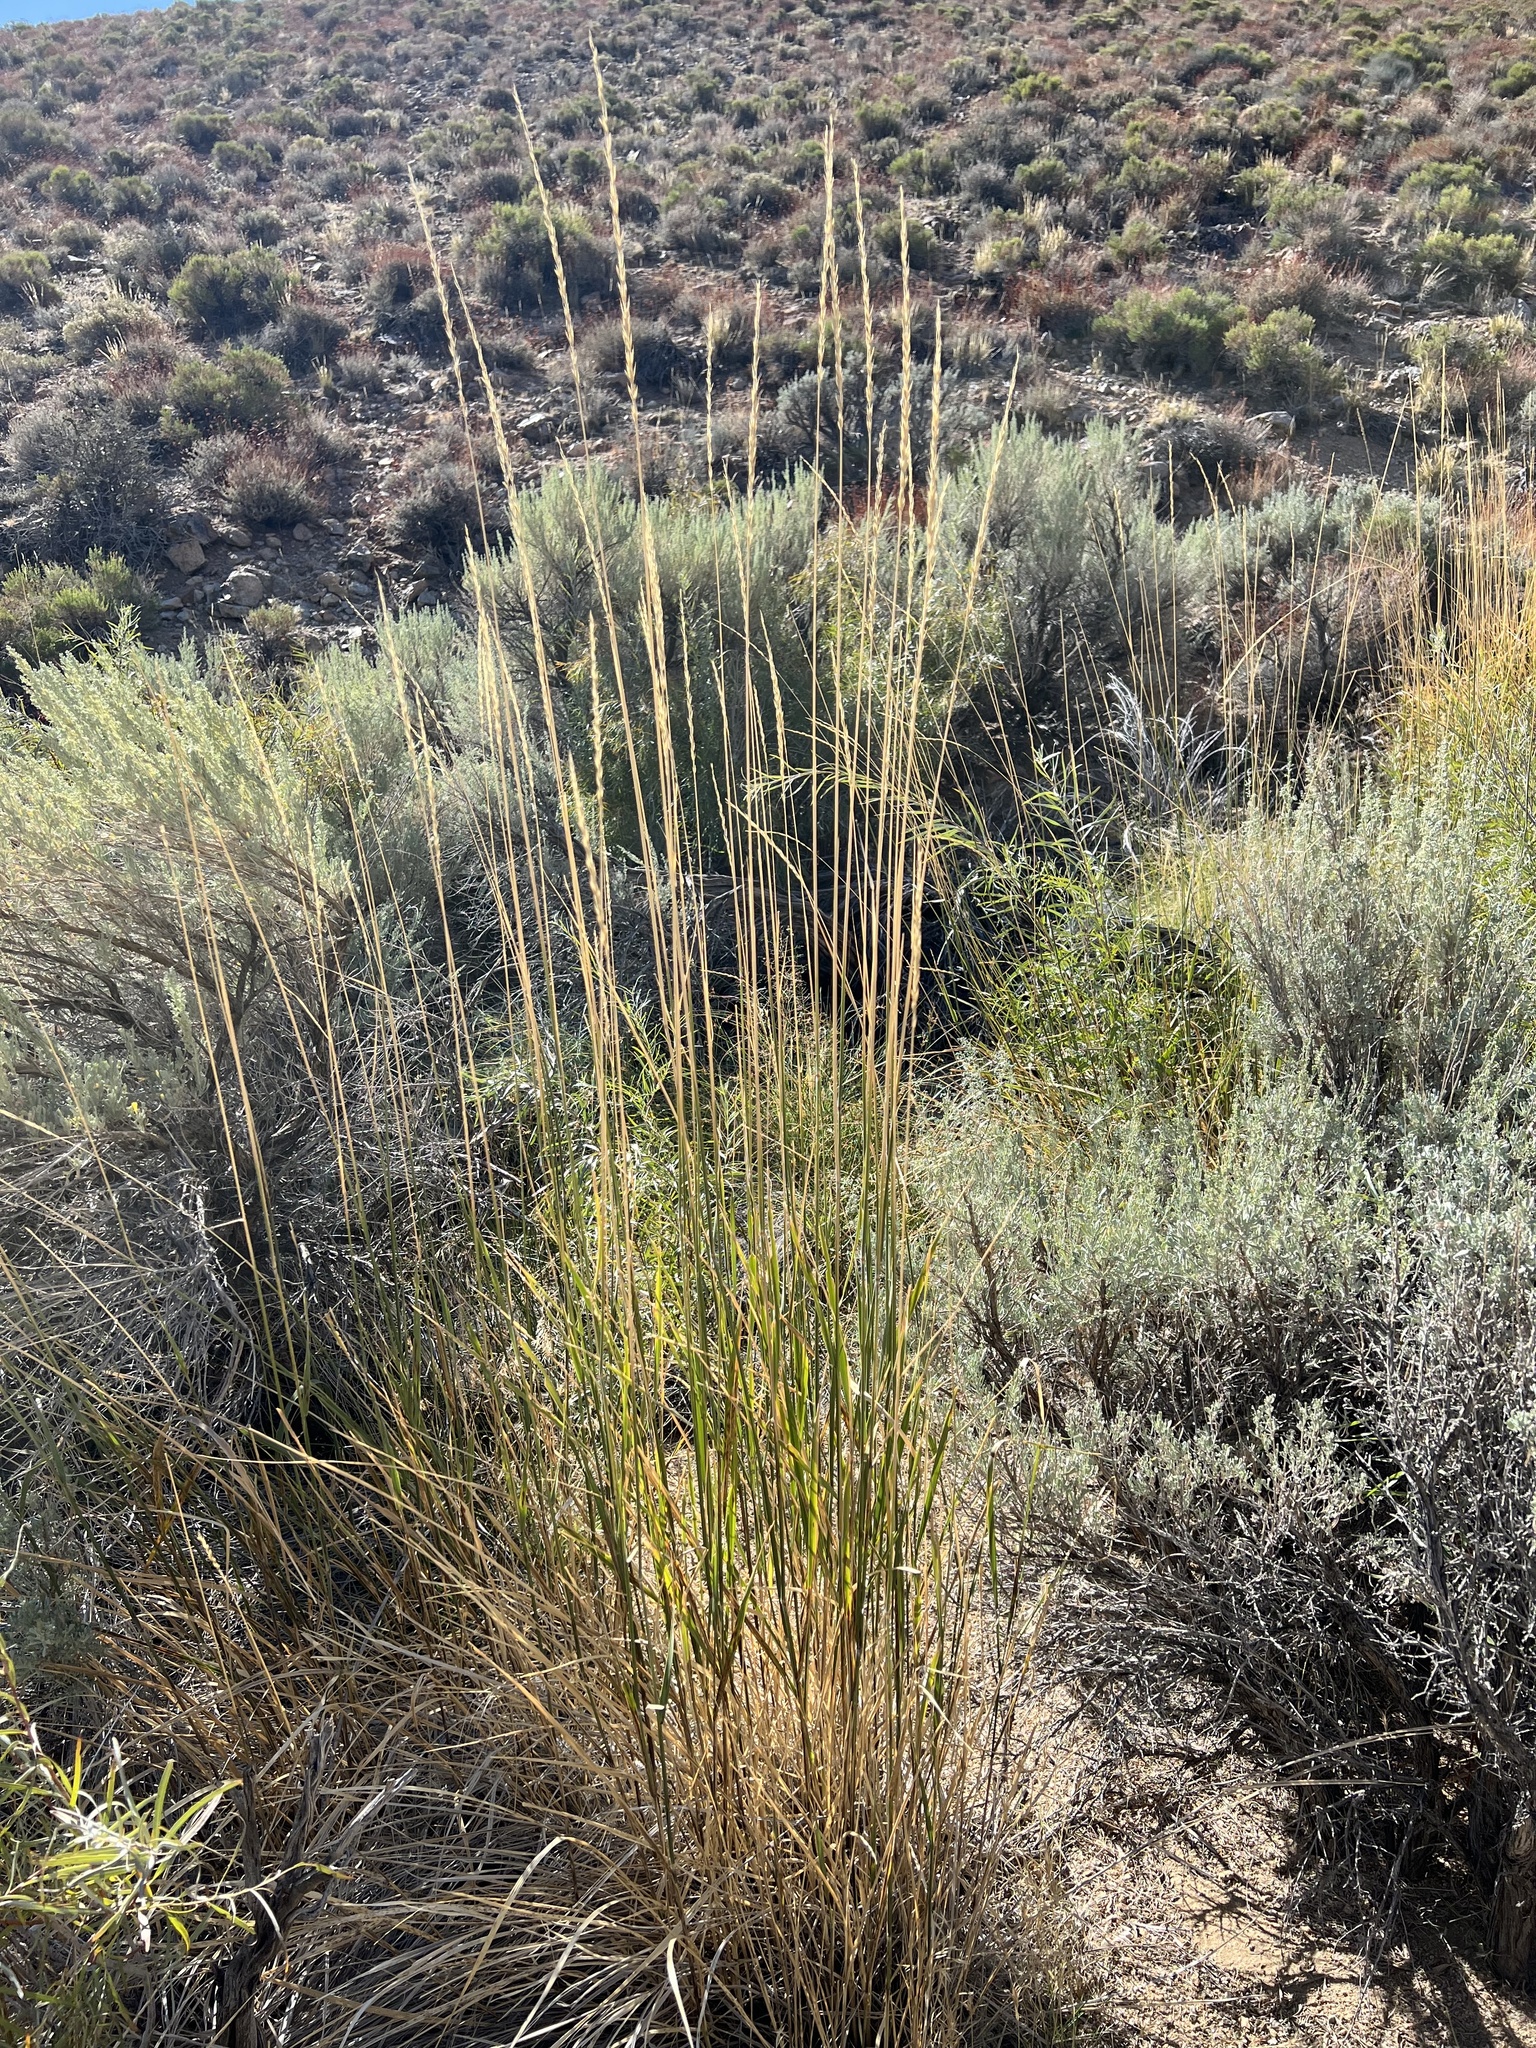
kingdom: Plantae
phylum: Tracheophyta
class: Liliopsida
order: Poales
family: Poaceae
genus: Leymus
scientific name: Leymus cinereus
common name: Basin wild rye
